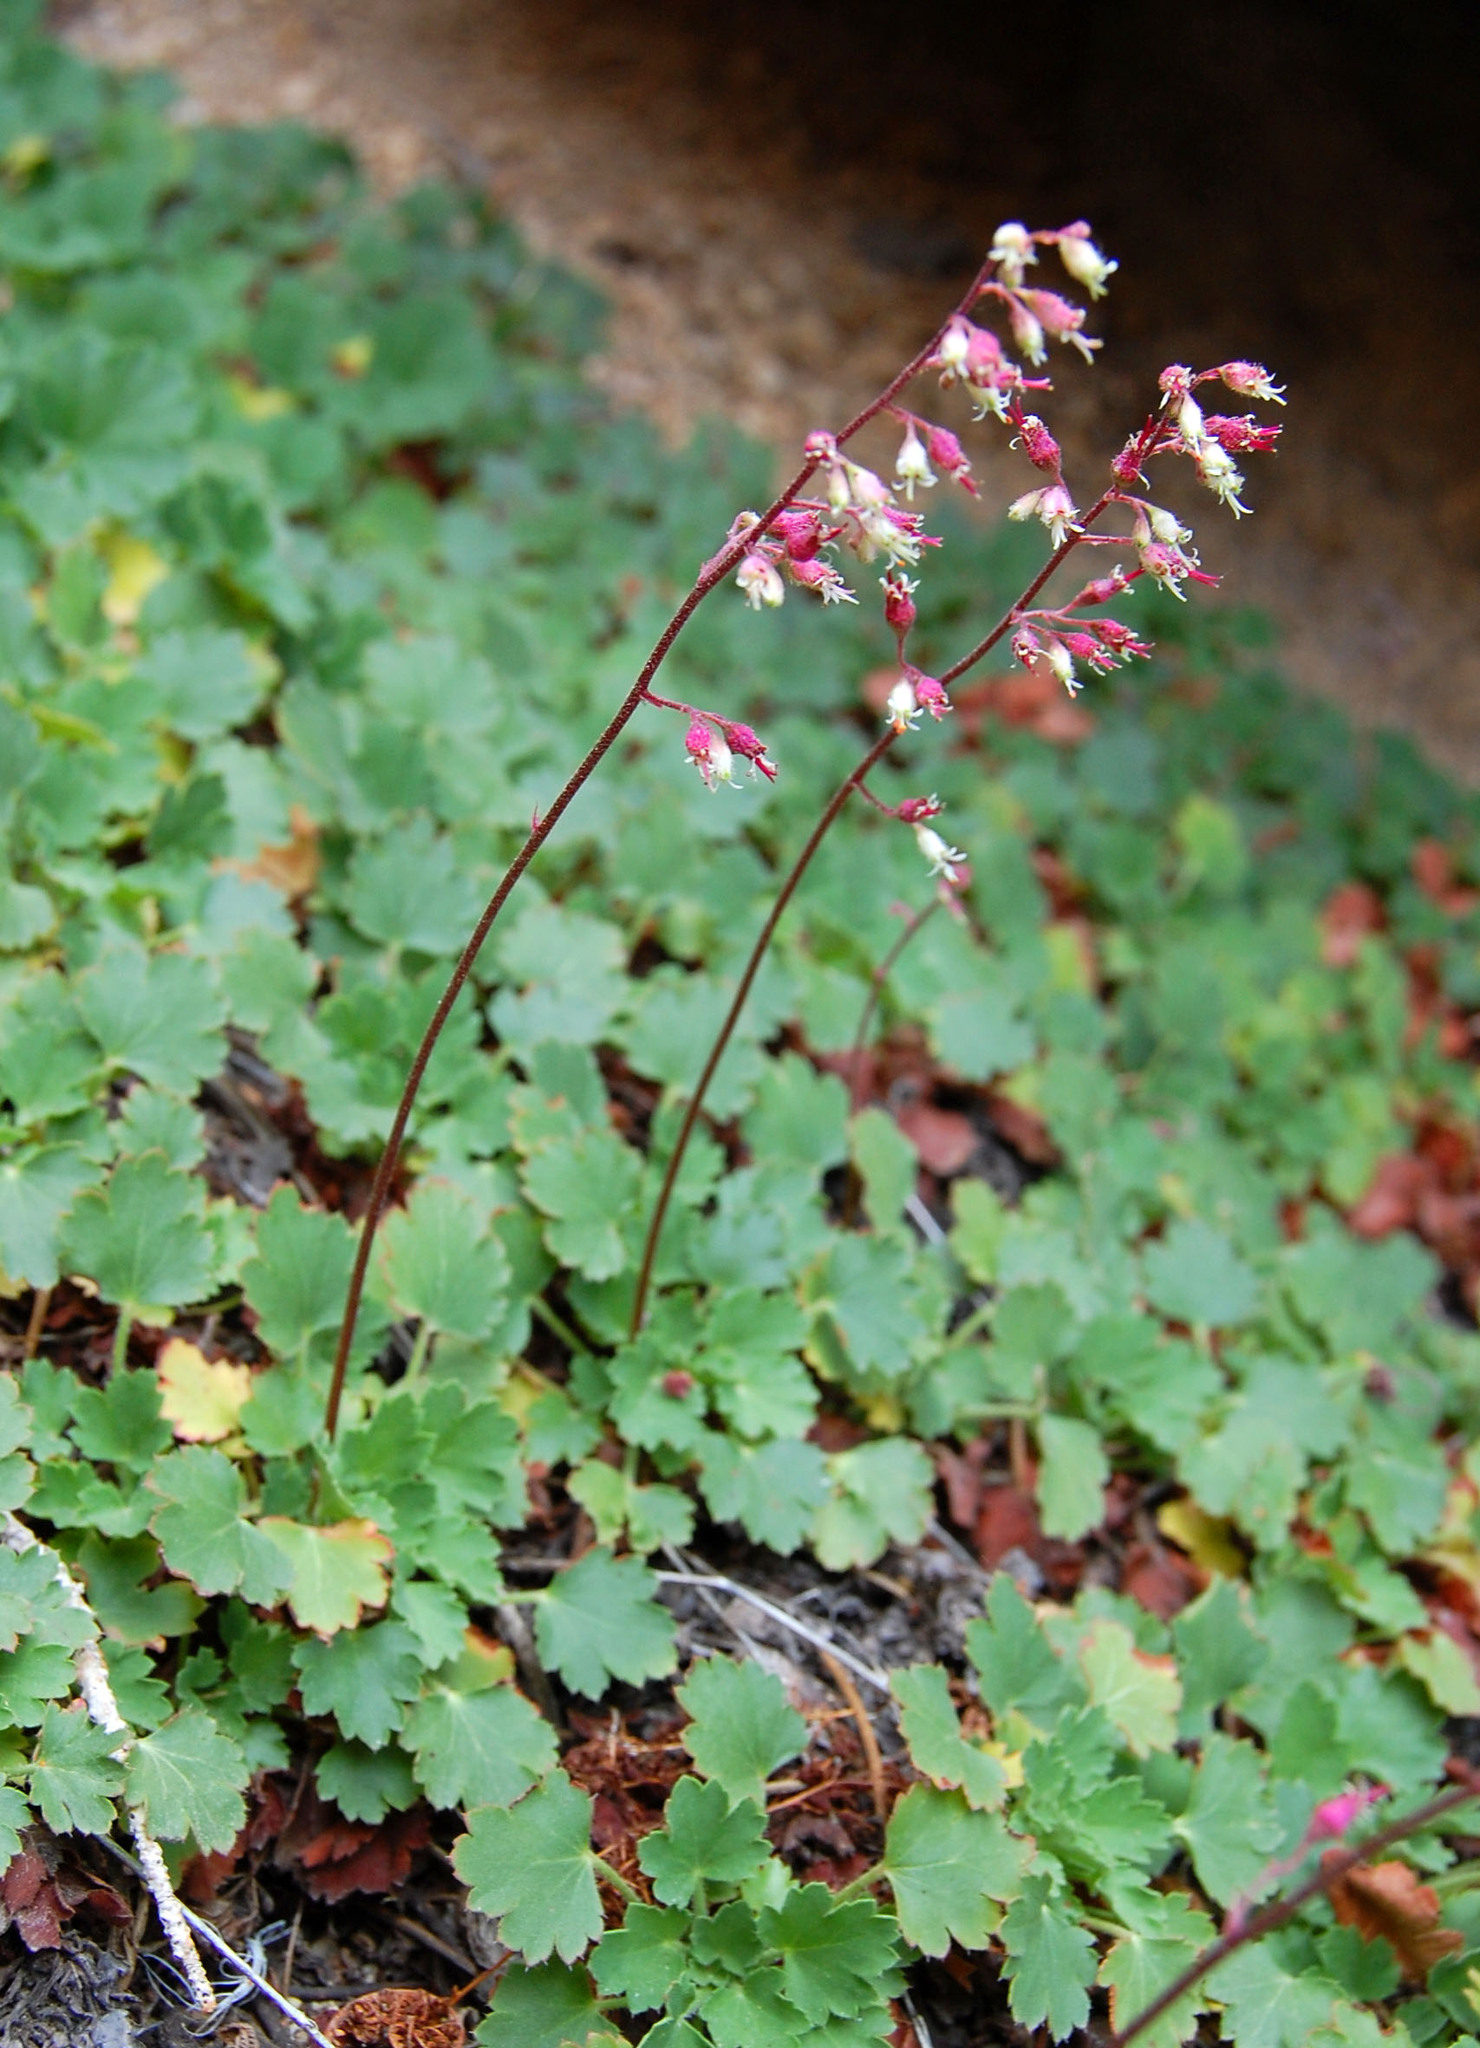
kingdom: Plantae
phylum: Tracheophyta
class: Magnoliopsida
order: Saxifragales
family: Saxifragaceae
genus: Heuchera
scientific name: Heuchera rubescens
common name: Jack-o'the-rocks
